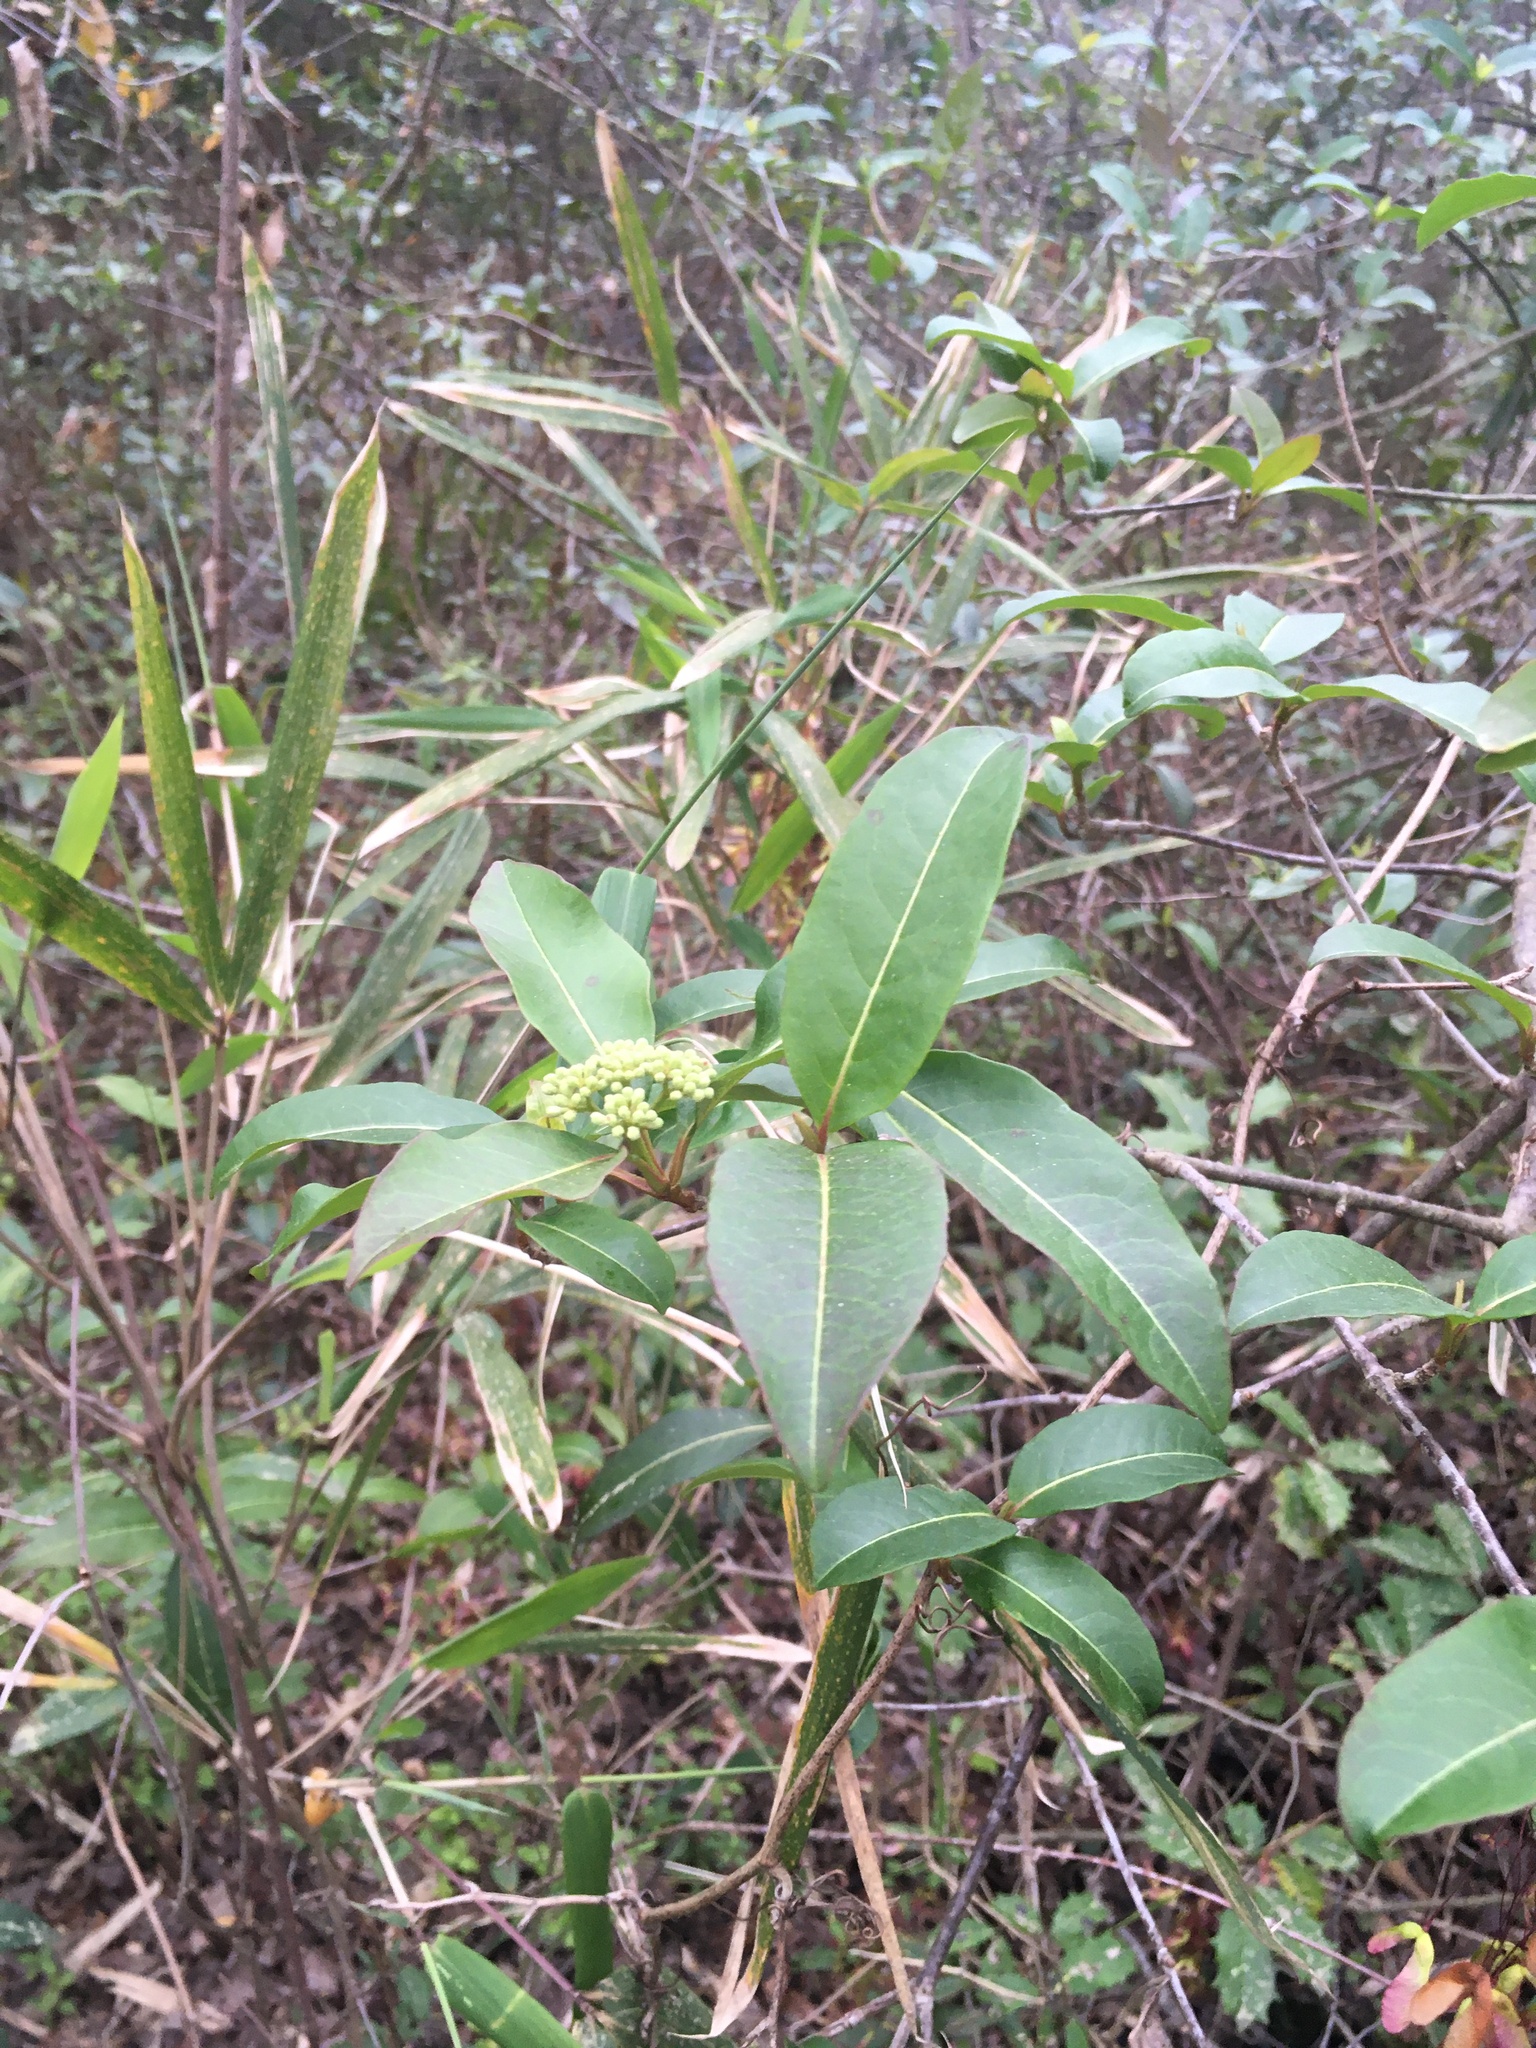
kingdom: Plantae
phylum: Tracheophyta
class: Magnoliopsida
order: Dipsacales
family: Viburnaceae
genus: Viburnum
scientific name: Viburnum nudum
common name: Possum haw
